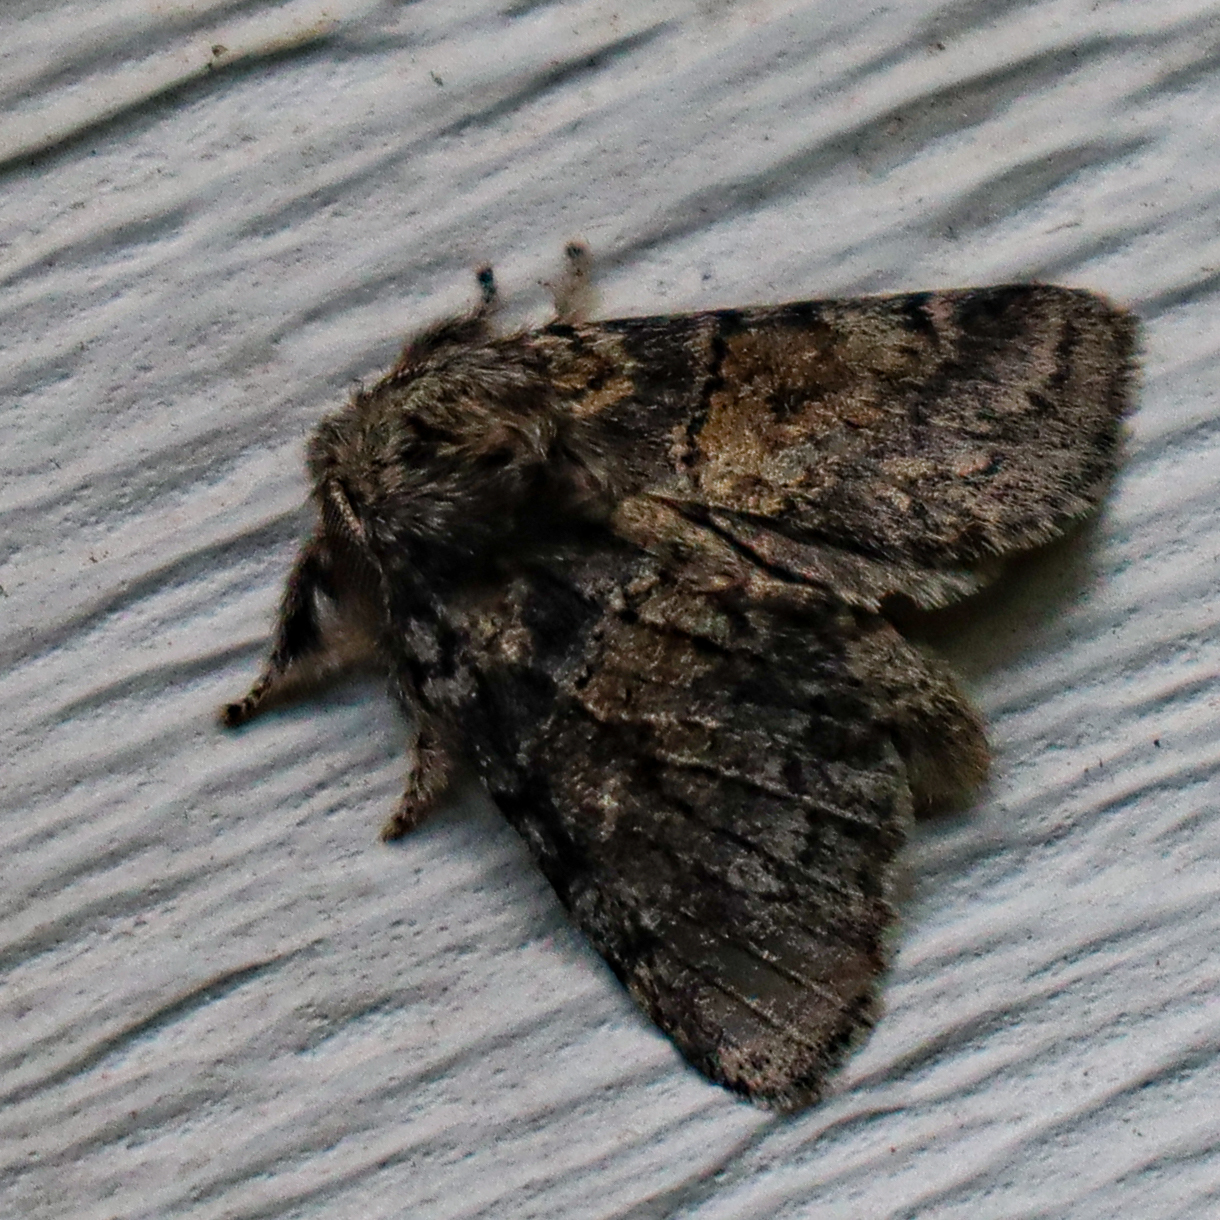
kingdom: Animalia
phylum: Arthropoda
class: Insecta
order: Lepidoptera
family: Notodontidae
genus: Gluphisia
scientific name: Gluphisia septentrionis
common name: Common gluphisia
